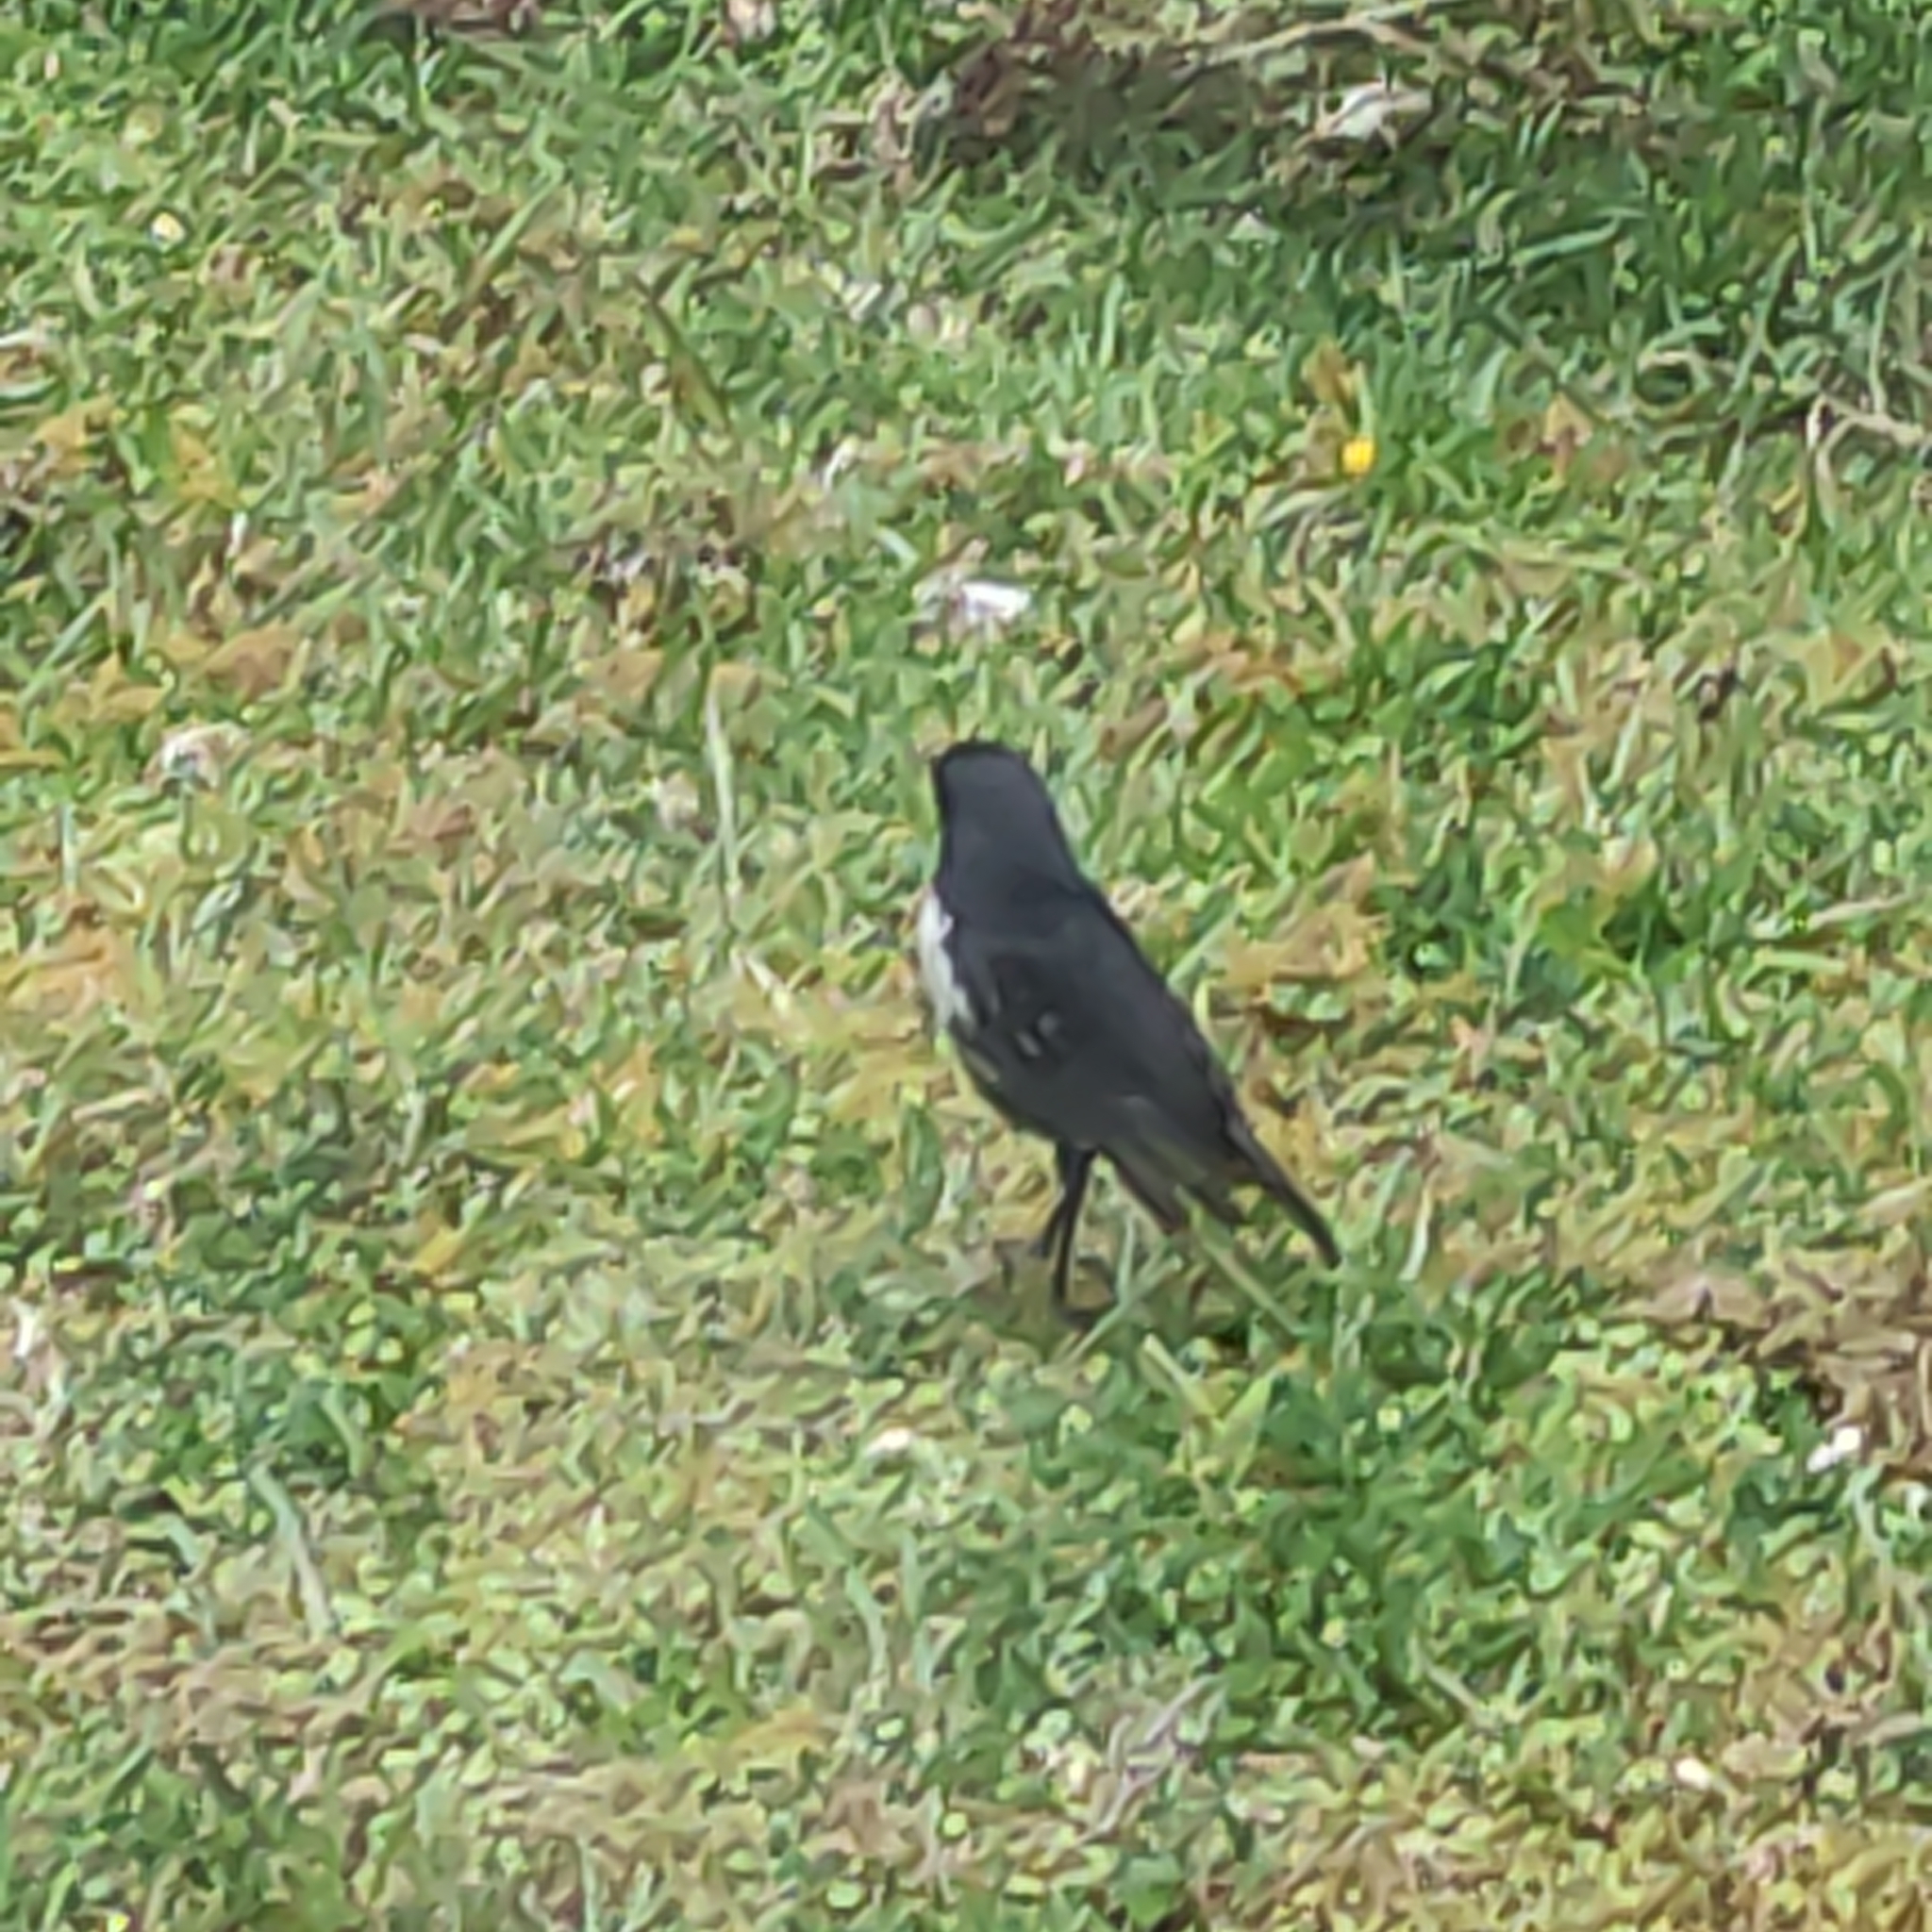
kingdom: Animalia
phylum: Chordata
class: Aves
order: Passeriformes
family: Petroicidae
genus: Petroica
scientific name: Petroica australis
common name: New zealand robin
